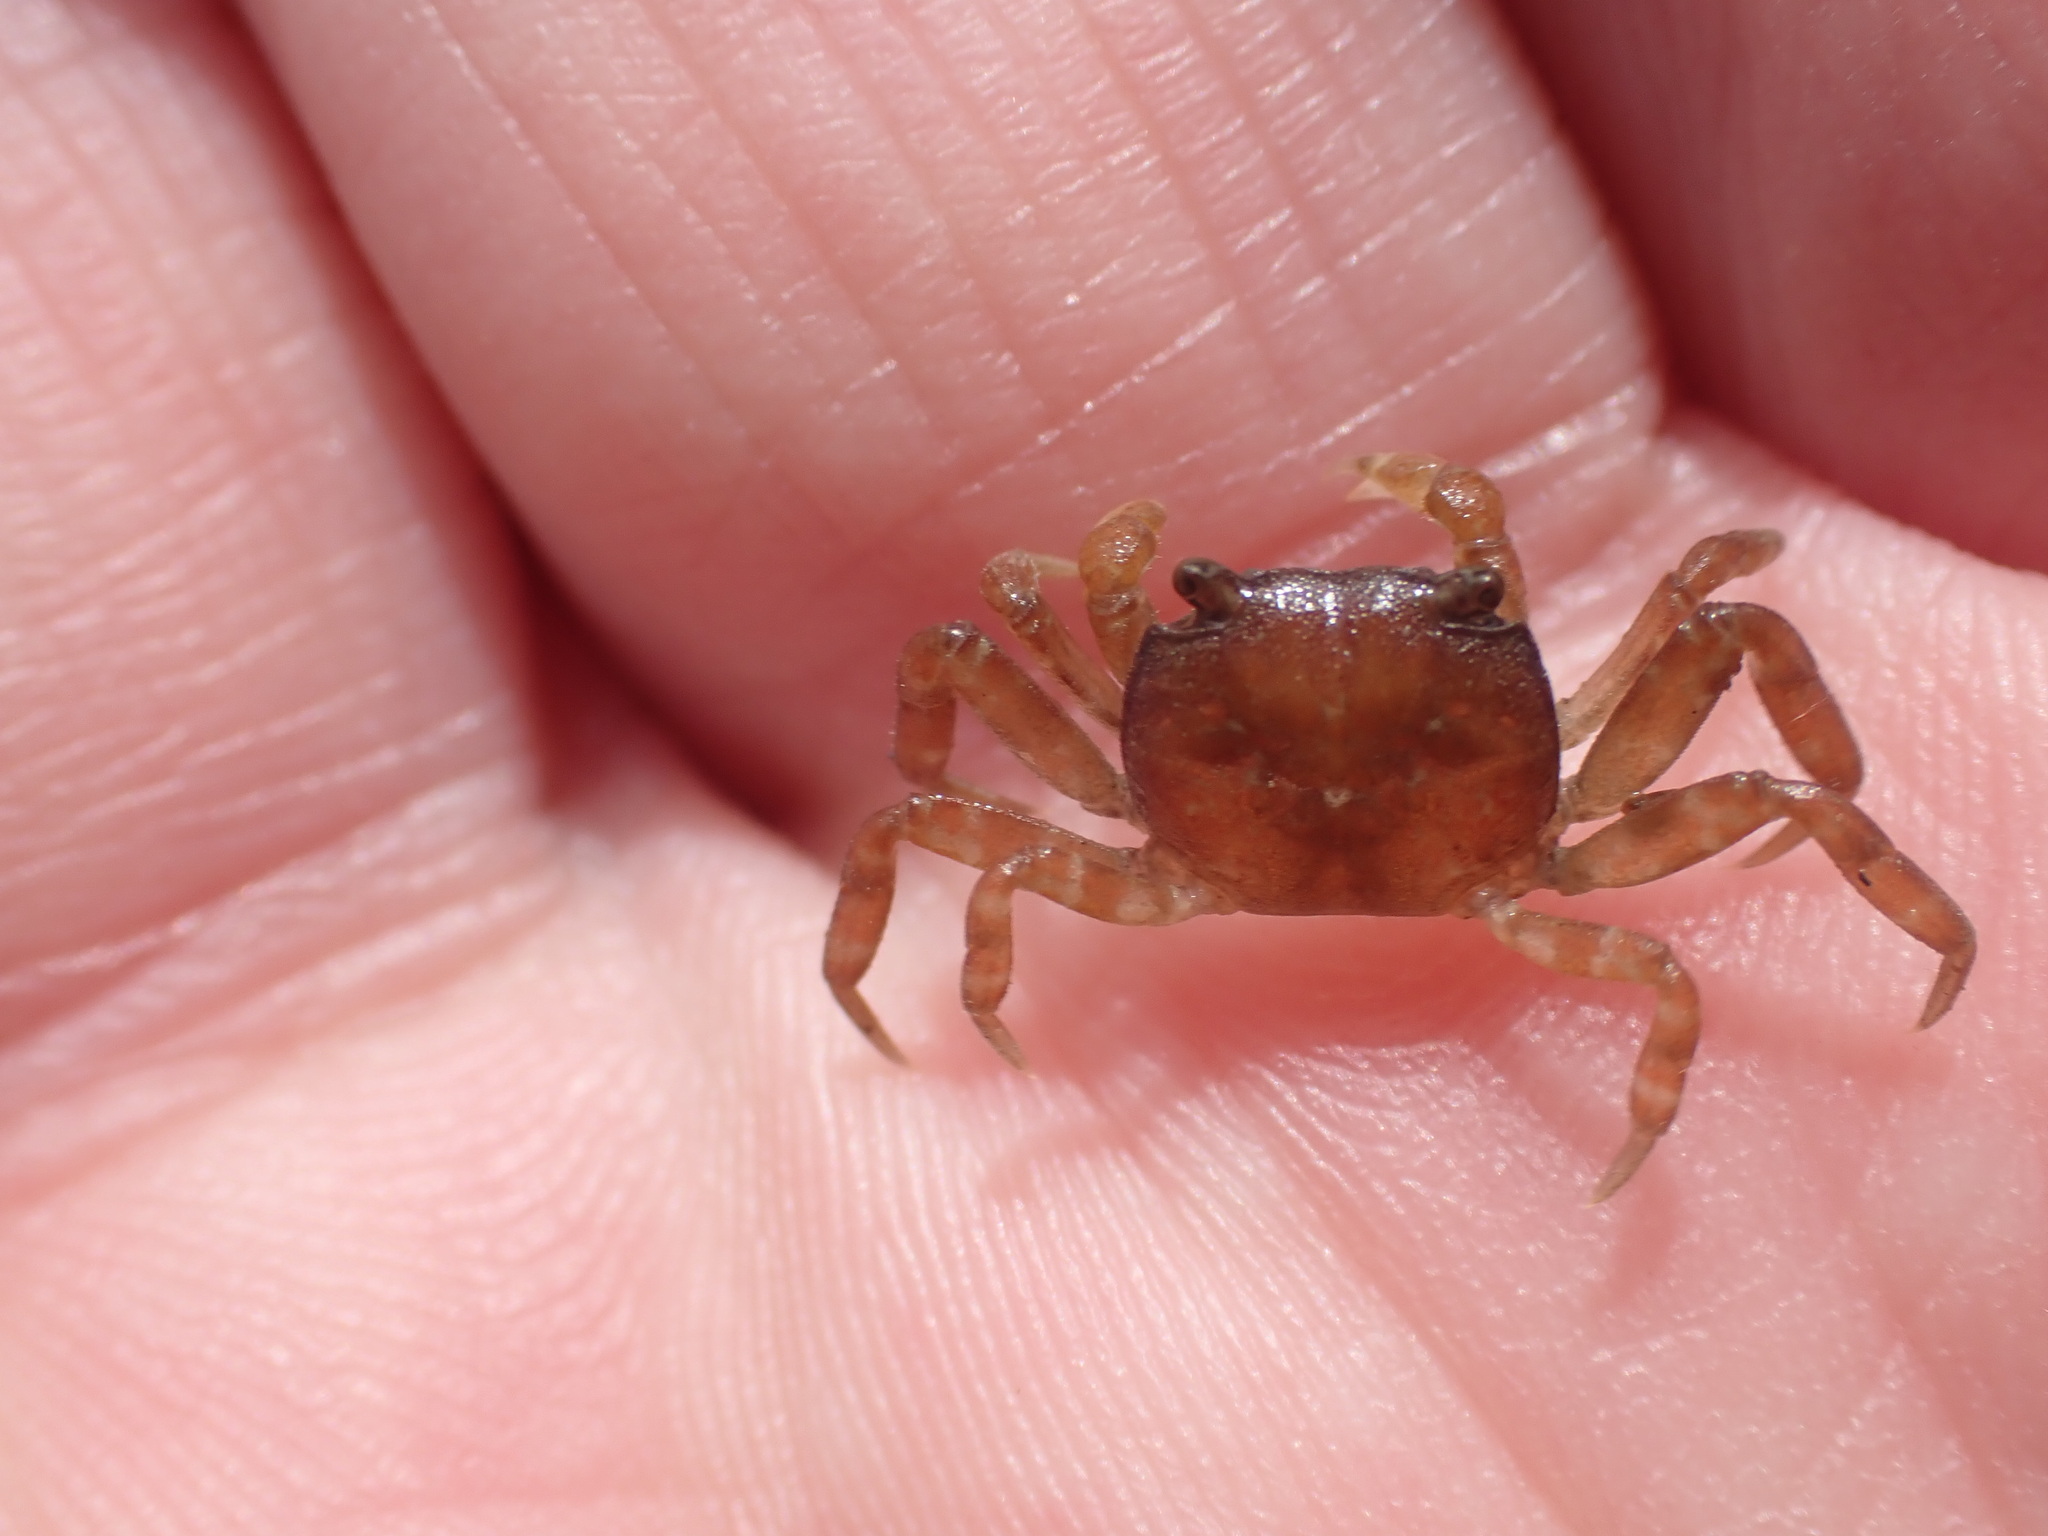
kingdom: Animalia
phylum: Arthropoda
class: Malacostraca
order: Decapoda
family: Varunidae
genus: Cyclograpsus
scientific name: Cyclograpsus lavauxi
